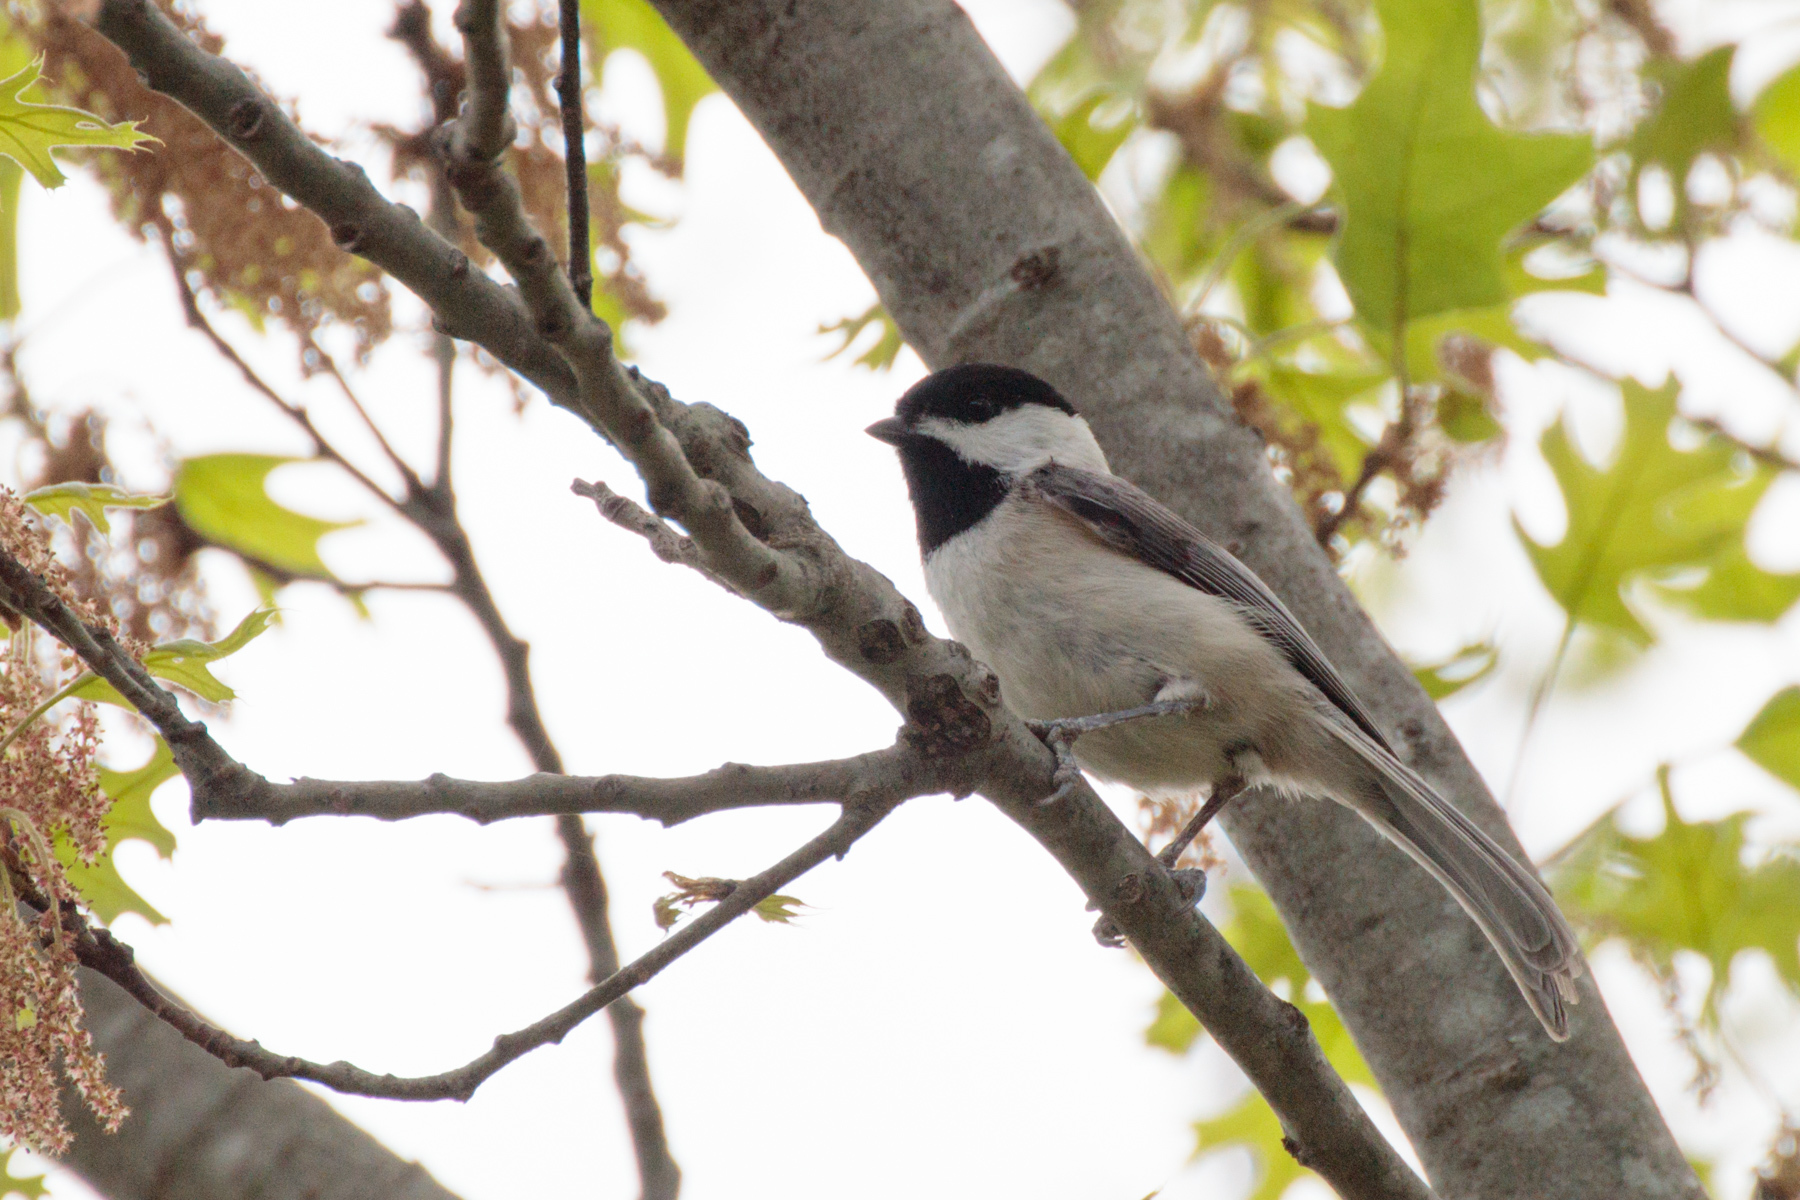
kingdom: Animalia
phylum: Chordata
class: Aves
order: Passeriformes
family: Paridae
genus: Poecile
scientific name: Poecile carolinensis
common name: Carolina chickadee
